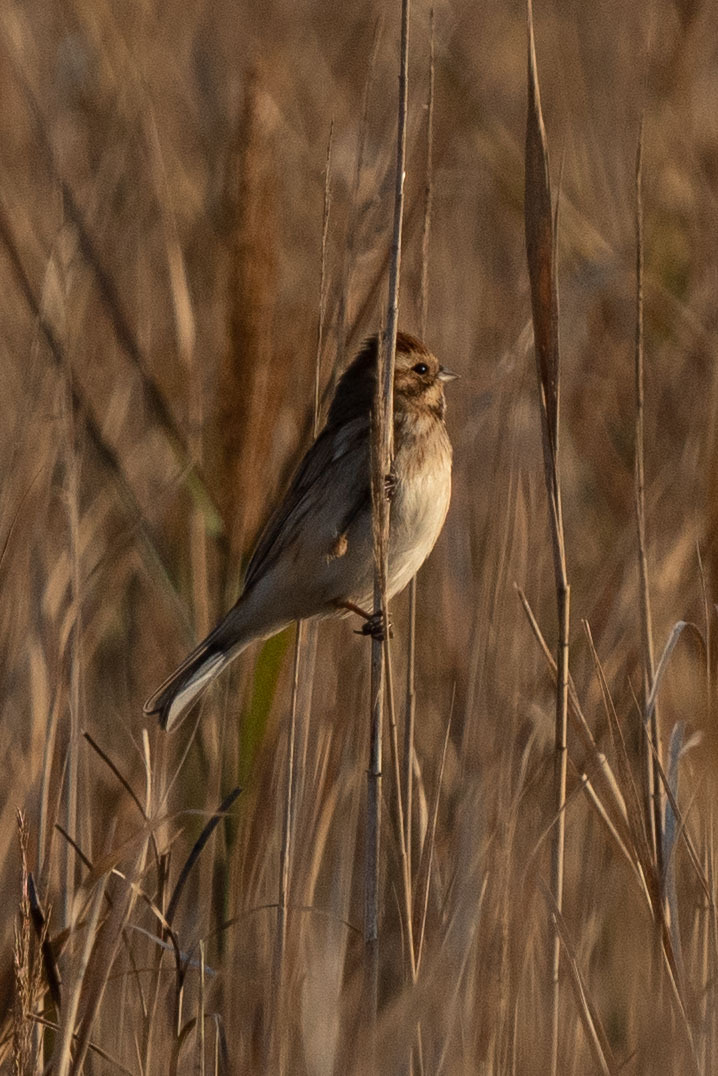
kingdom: Animalia
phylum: Chordata
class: Aves
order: Passeriformes
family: Emberizidae
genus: Emberiza
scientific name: Emberiza schoeniclus
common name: Reed bunting
